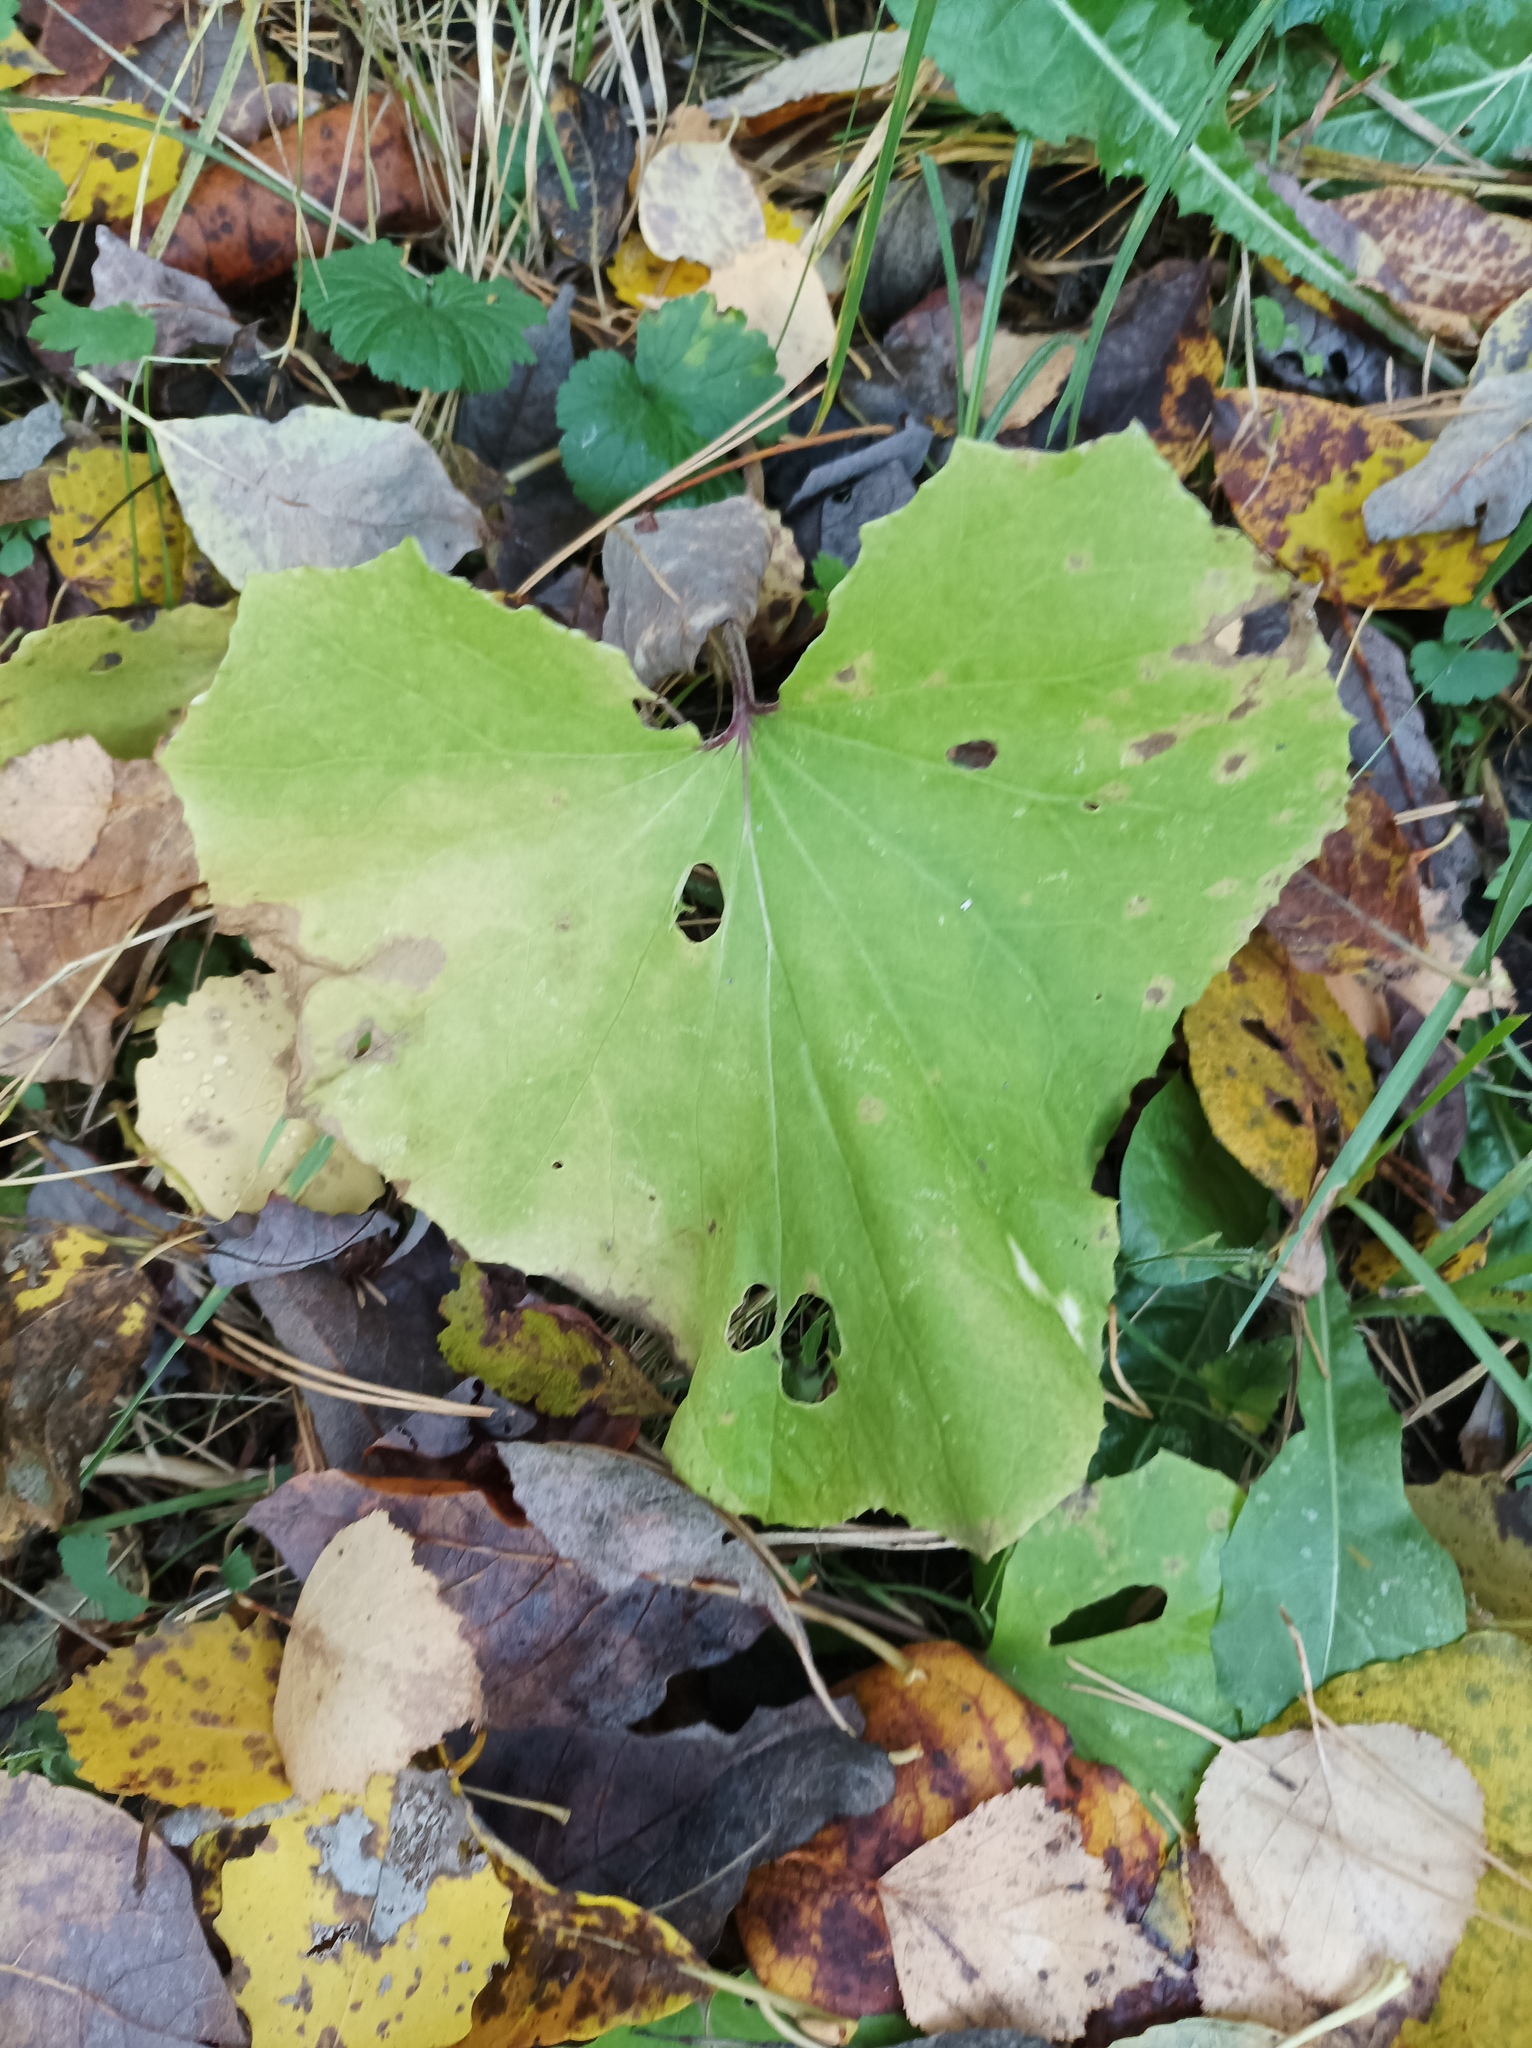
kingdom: Plantae
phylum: Tracheophyta
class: Magnoliopsida
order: Asterales
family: Asteraceae
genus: Tussilago
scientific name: Tussilago farfara
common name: Coltsfoot
